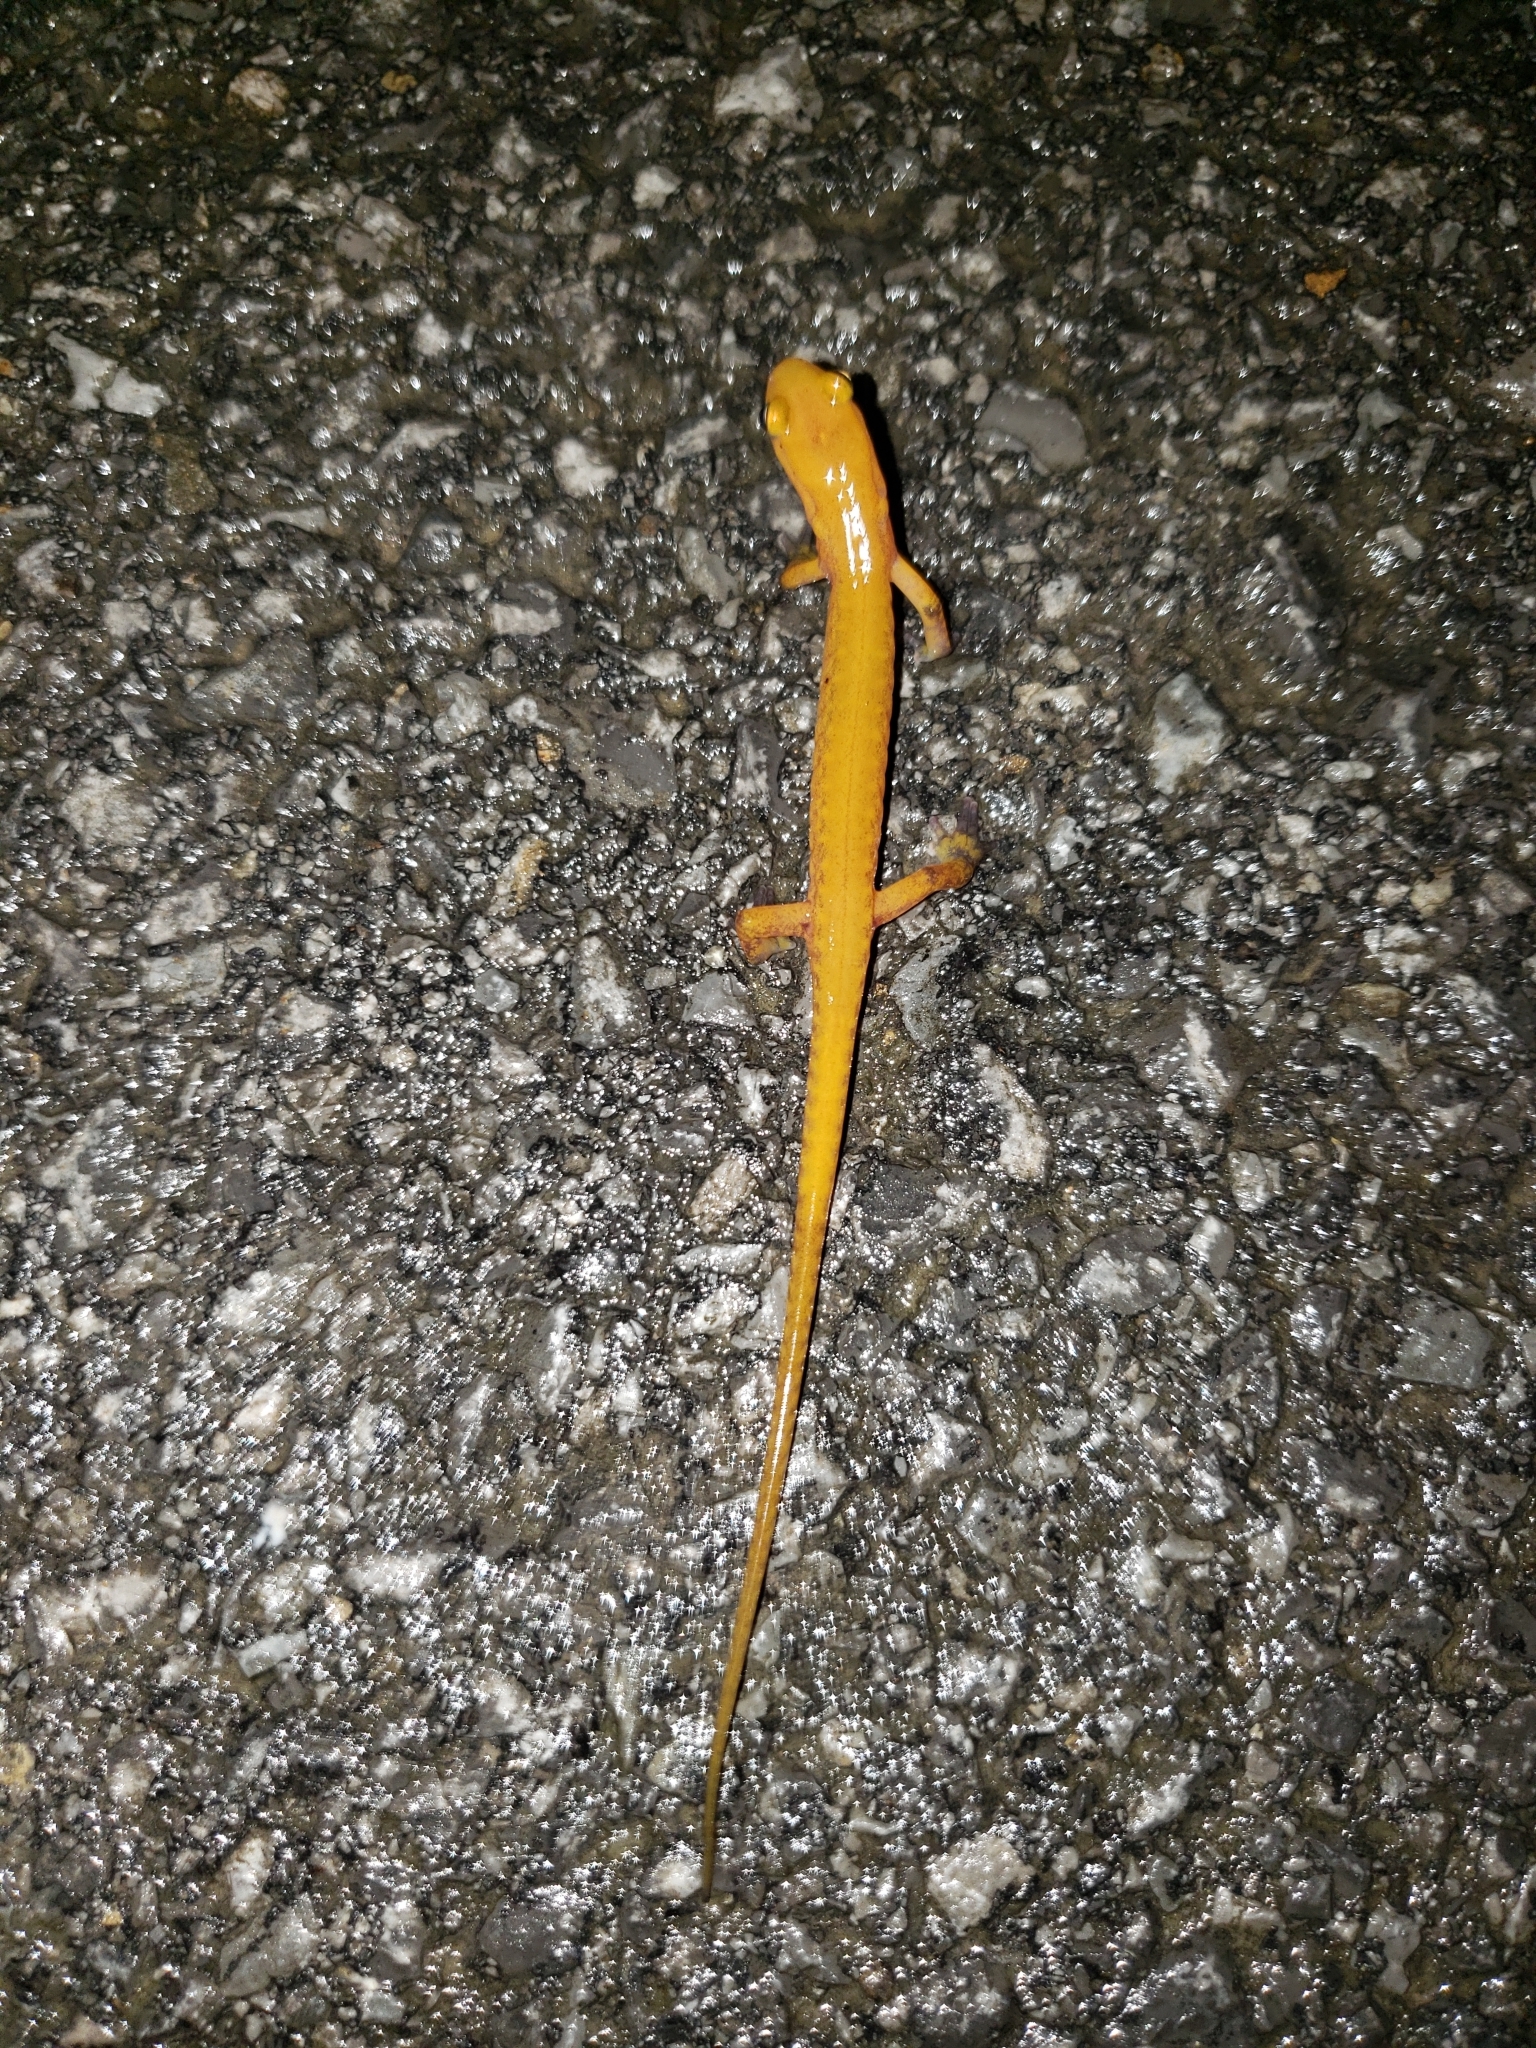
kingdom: Animalia
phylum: Chordata
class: Amphibia
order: Caudata
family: Plethodontidae
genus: Eurycea
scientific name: Eurycea longicauda
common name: Long-tailed salamander
